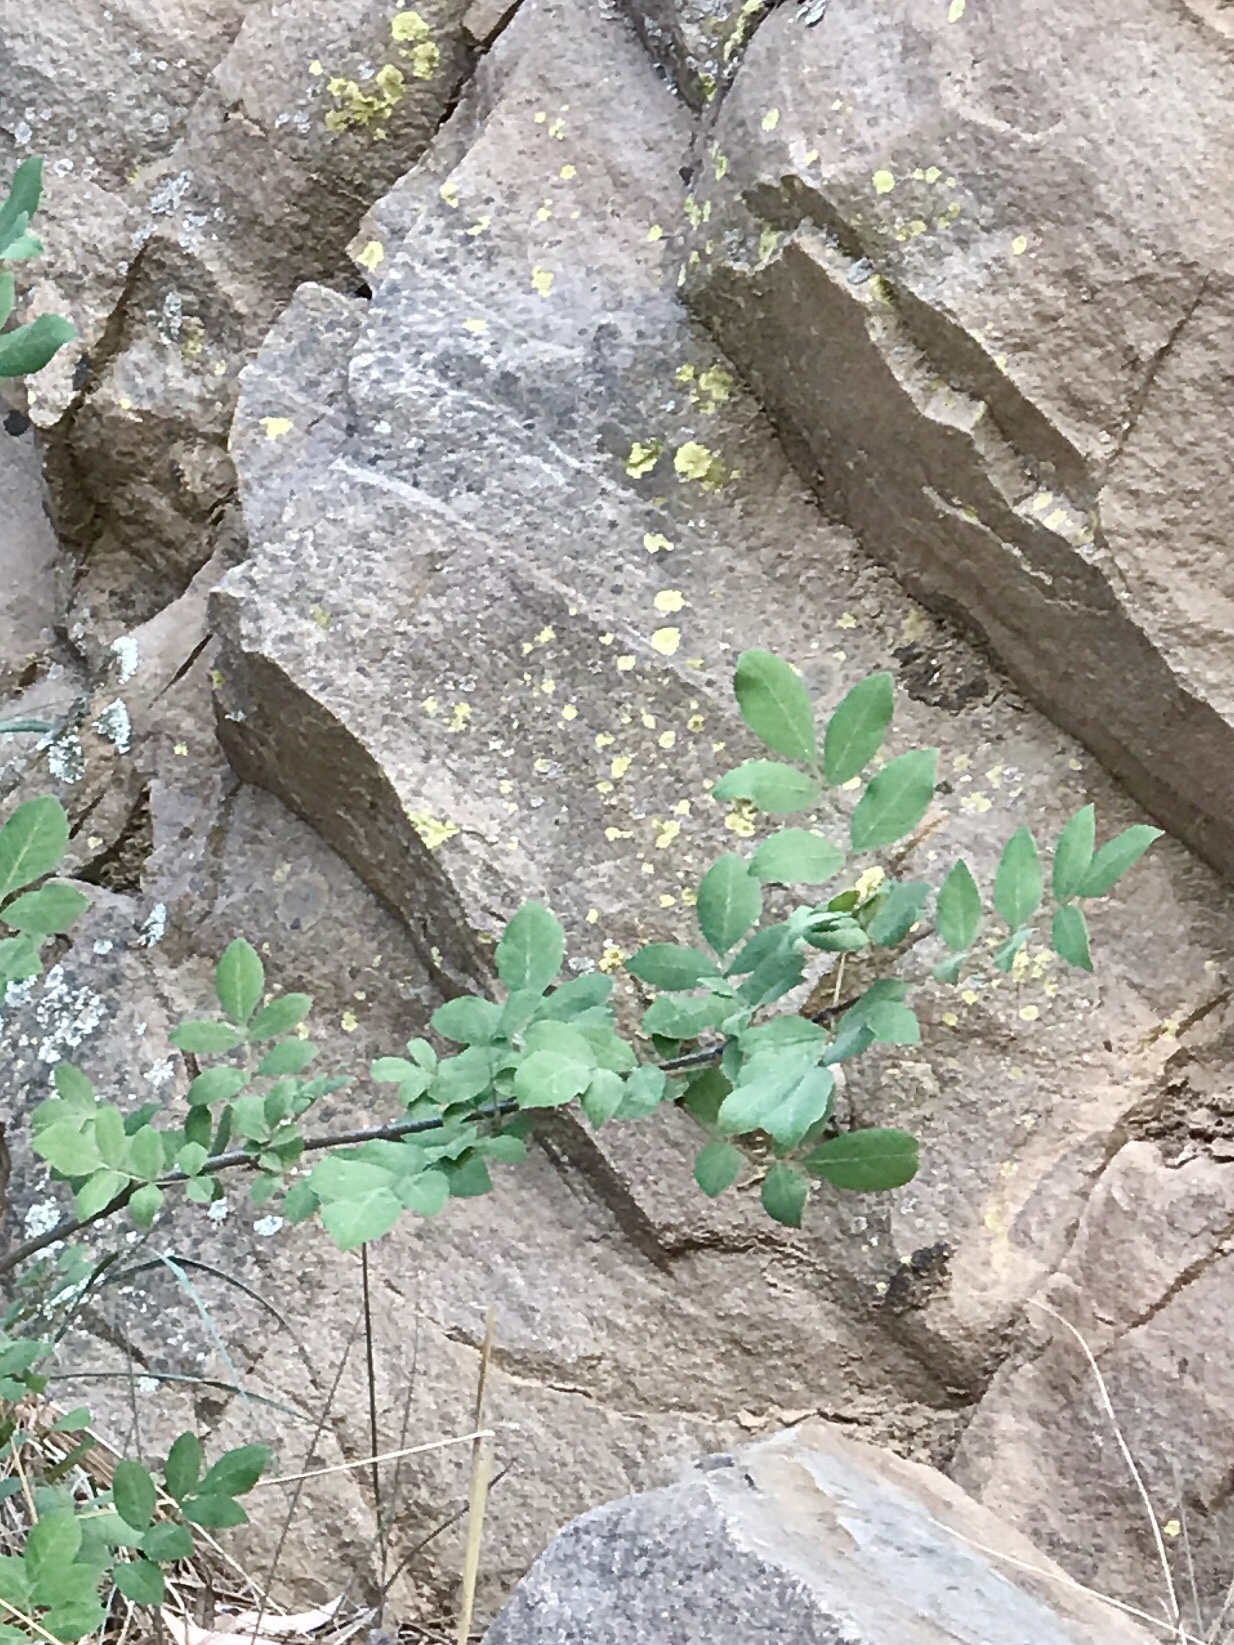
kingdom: Plantae
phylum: Tracheophyta
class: Magnoliopsida
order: Lamiales
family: Oleaceae
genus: Fraxinus
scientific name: Fraxinus papillosa
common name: Chihuahua ash
